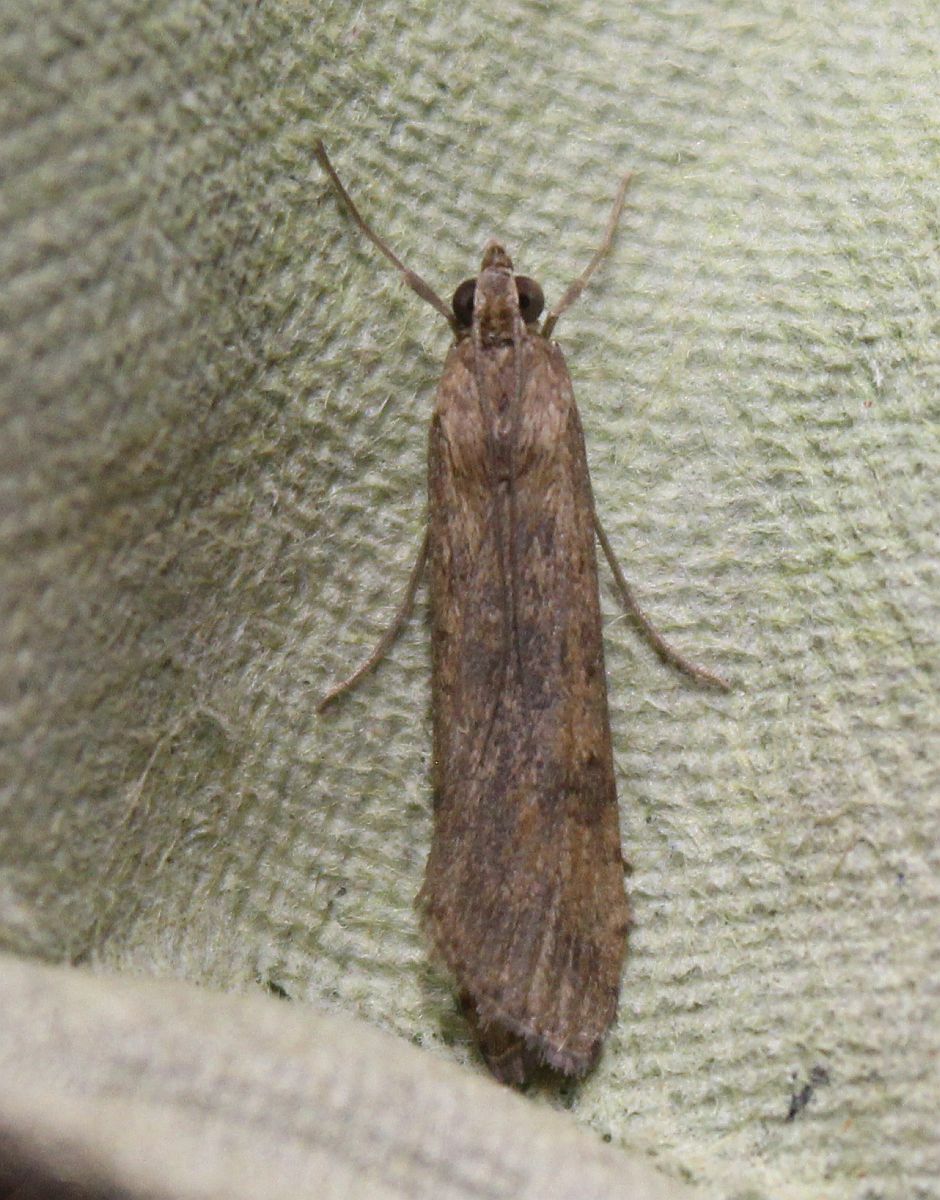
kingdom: Animalia
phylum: Arthropoda
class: Insecta
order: Lepidoptera
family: Crambidae
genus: Nomophila
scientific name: Nomophila noctuella
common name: Rush veneer
